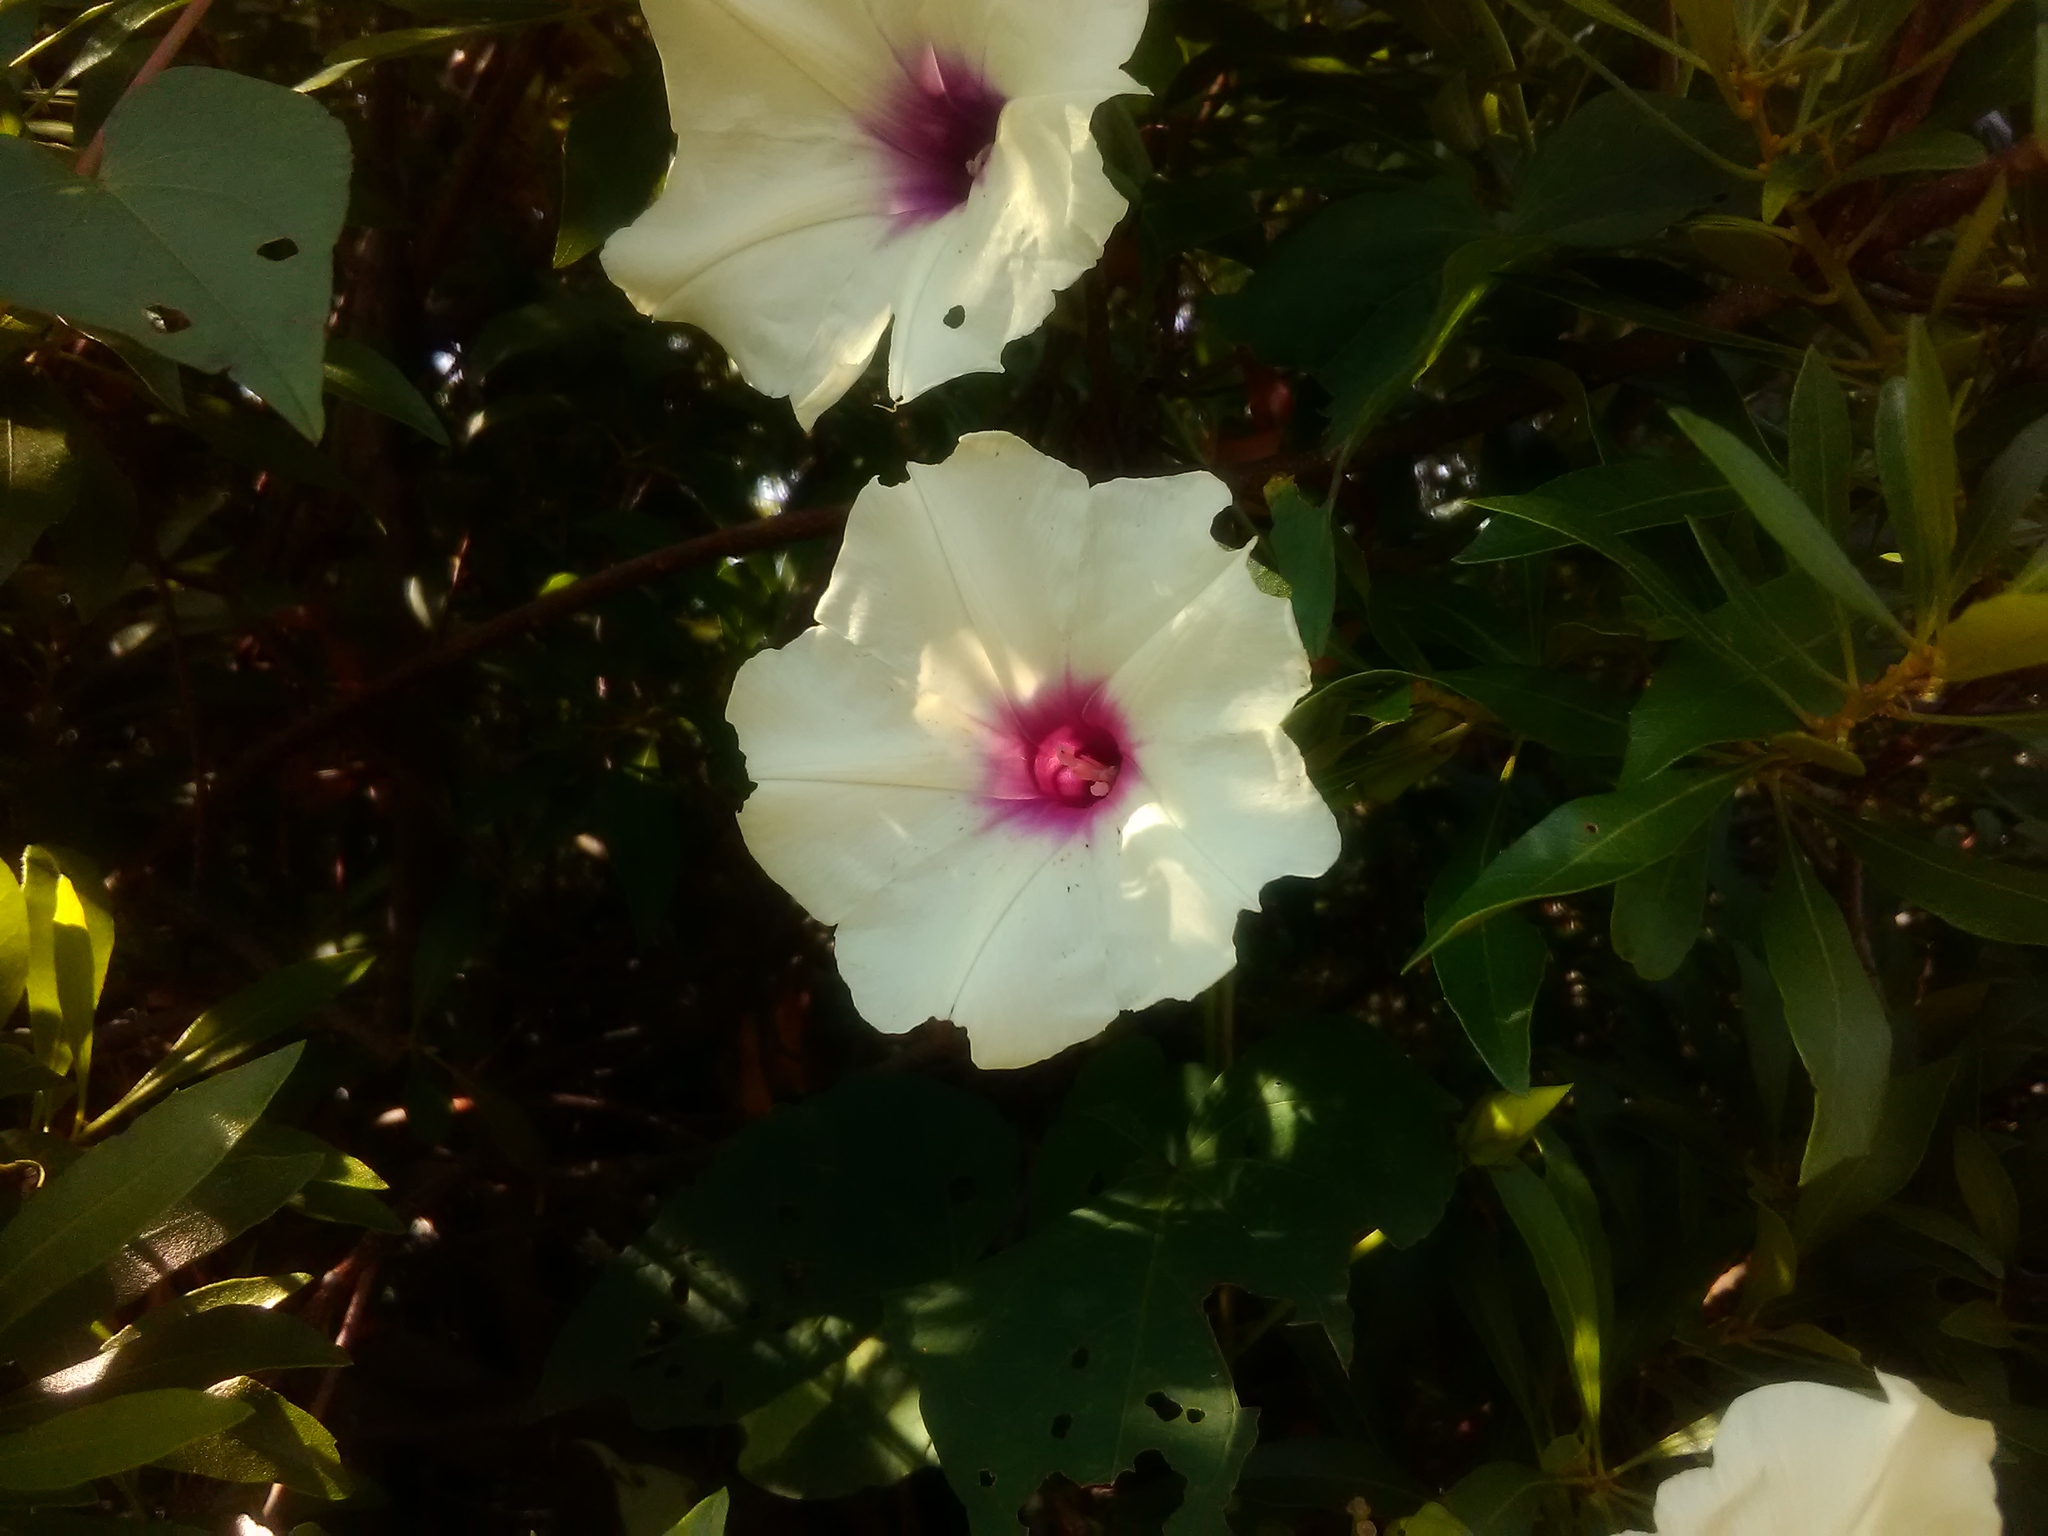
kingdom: Plantae
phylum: Tracheophyta
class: Magnoliopsida
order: Solanales
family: Convolvulaceae
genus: Ipomoea
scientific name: Ipomoea pandurata
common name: Man-of-the-earth
